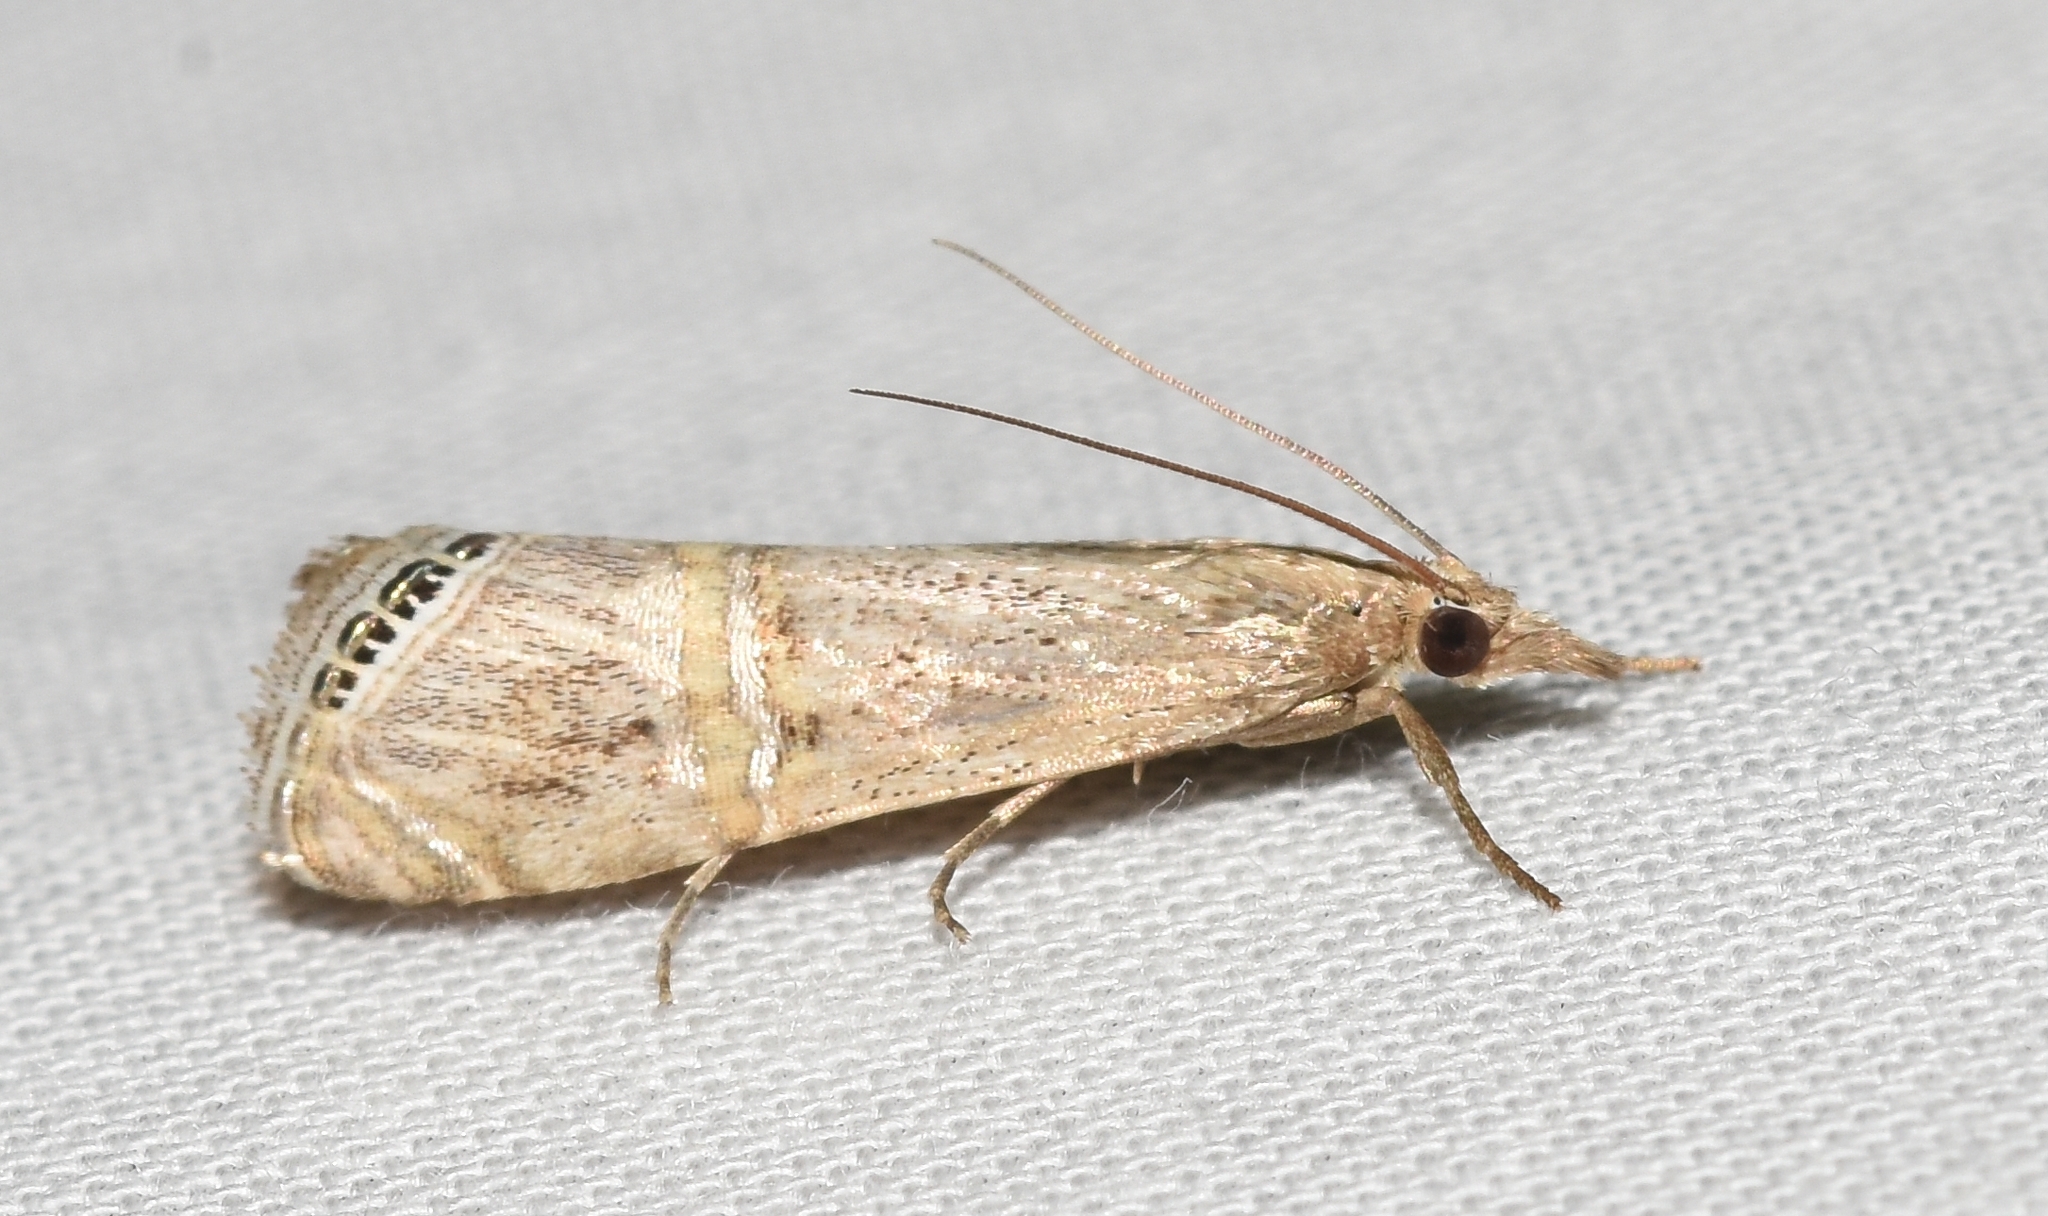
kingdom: Animalia
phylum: Arthropoda
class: Insecta
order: Lepidoptera
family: Crambidae
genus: Euchromius
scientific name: Euchromius ocellea
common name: Necklace veneer moth
